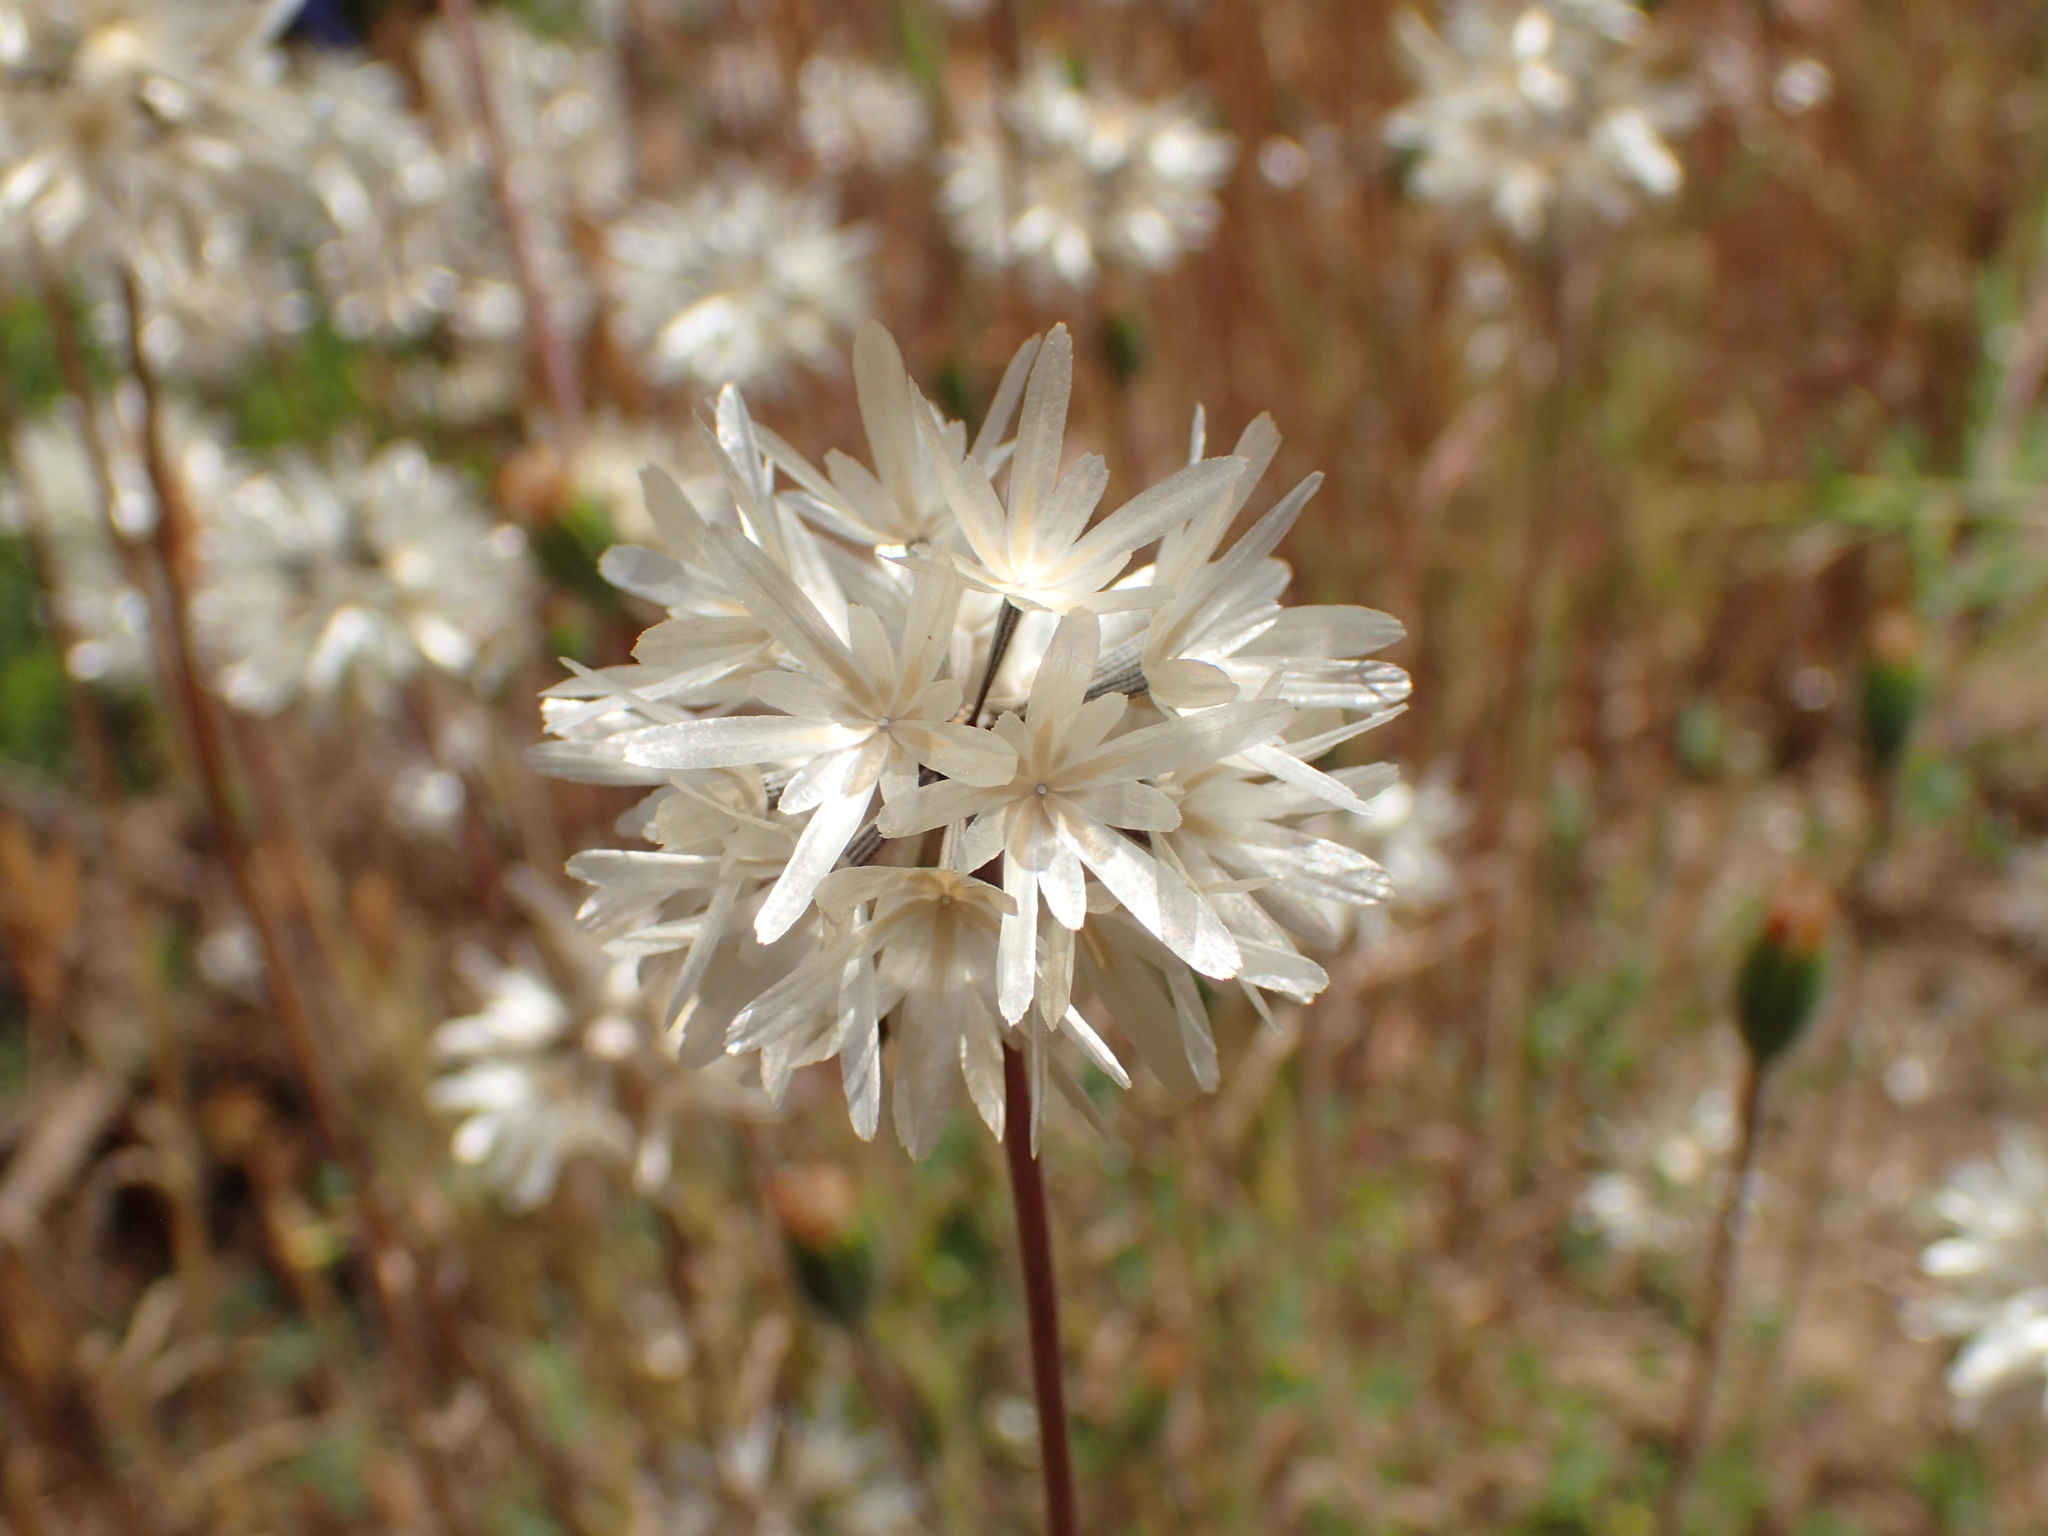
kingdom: Plantae
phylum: Tracheophyta
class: Magnoliopsida
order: Asterales
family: Asteraceae
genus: Achyrachaena
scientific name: Achyrachaena mollis
